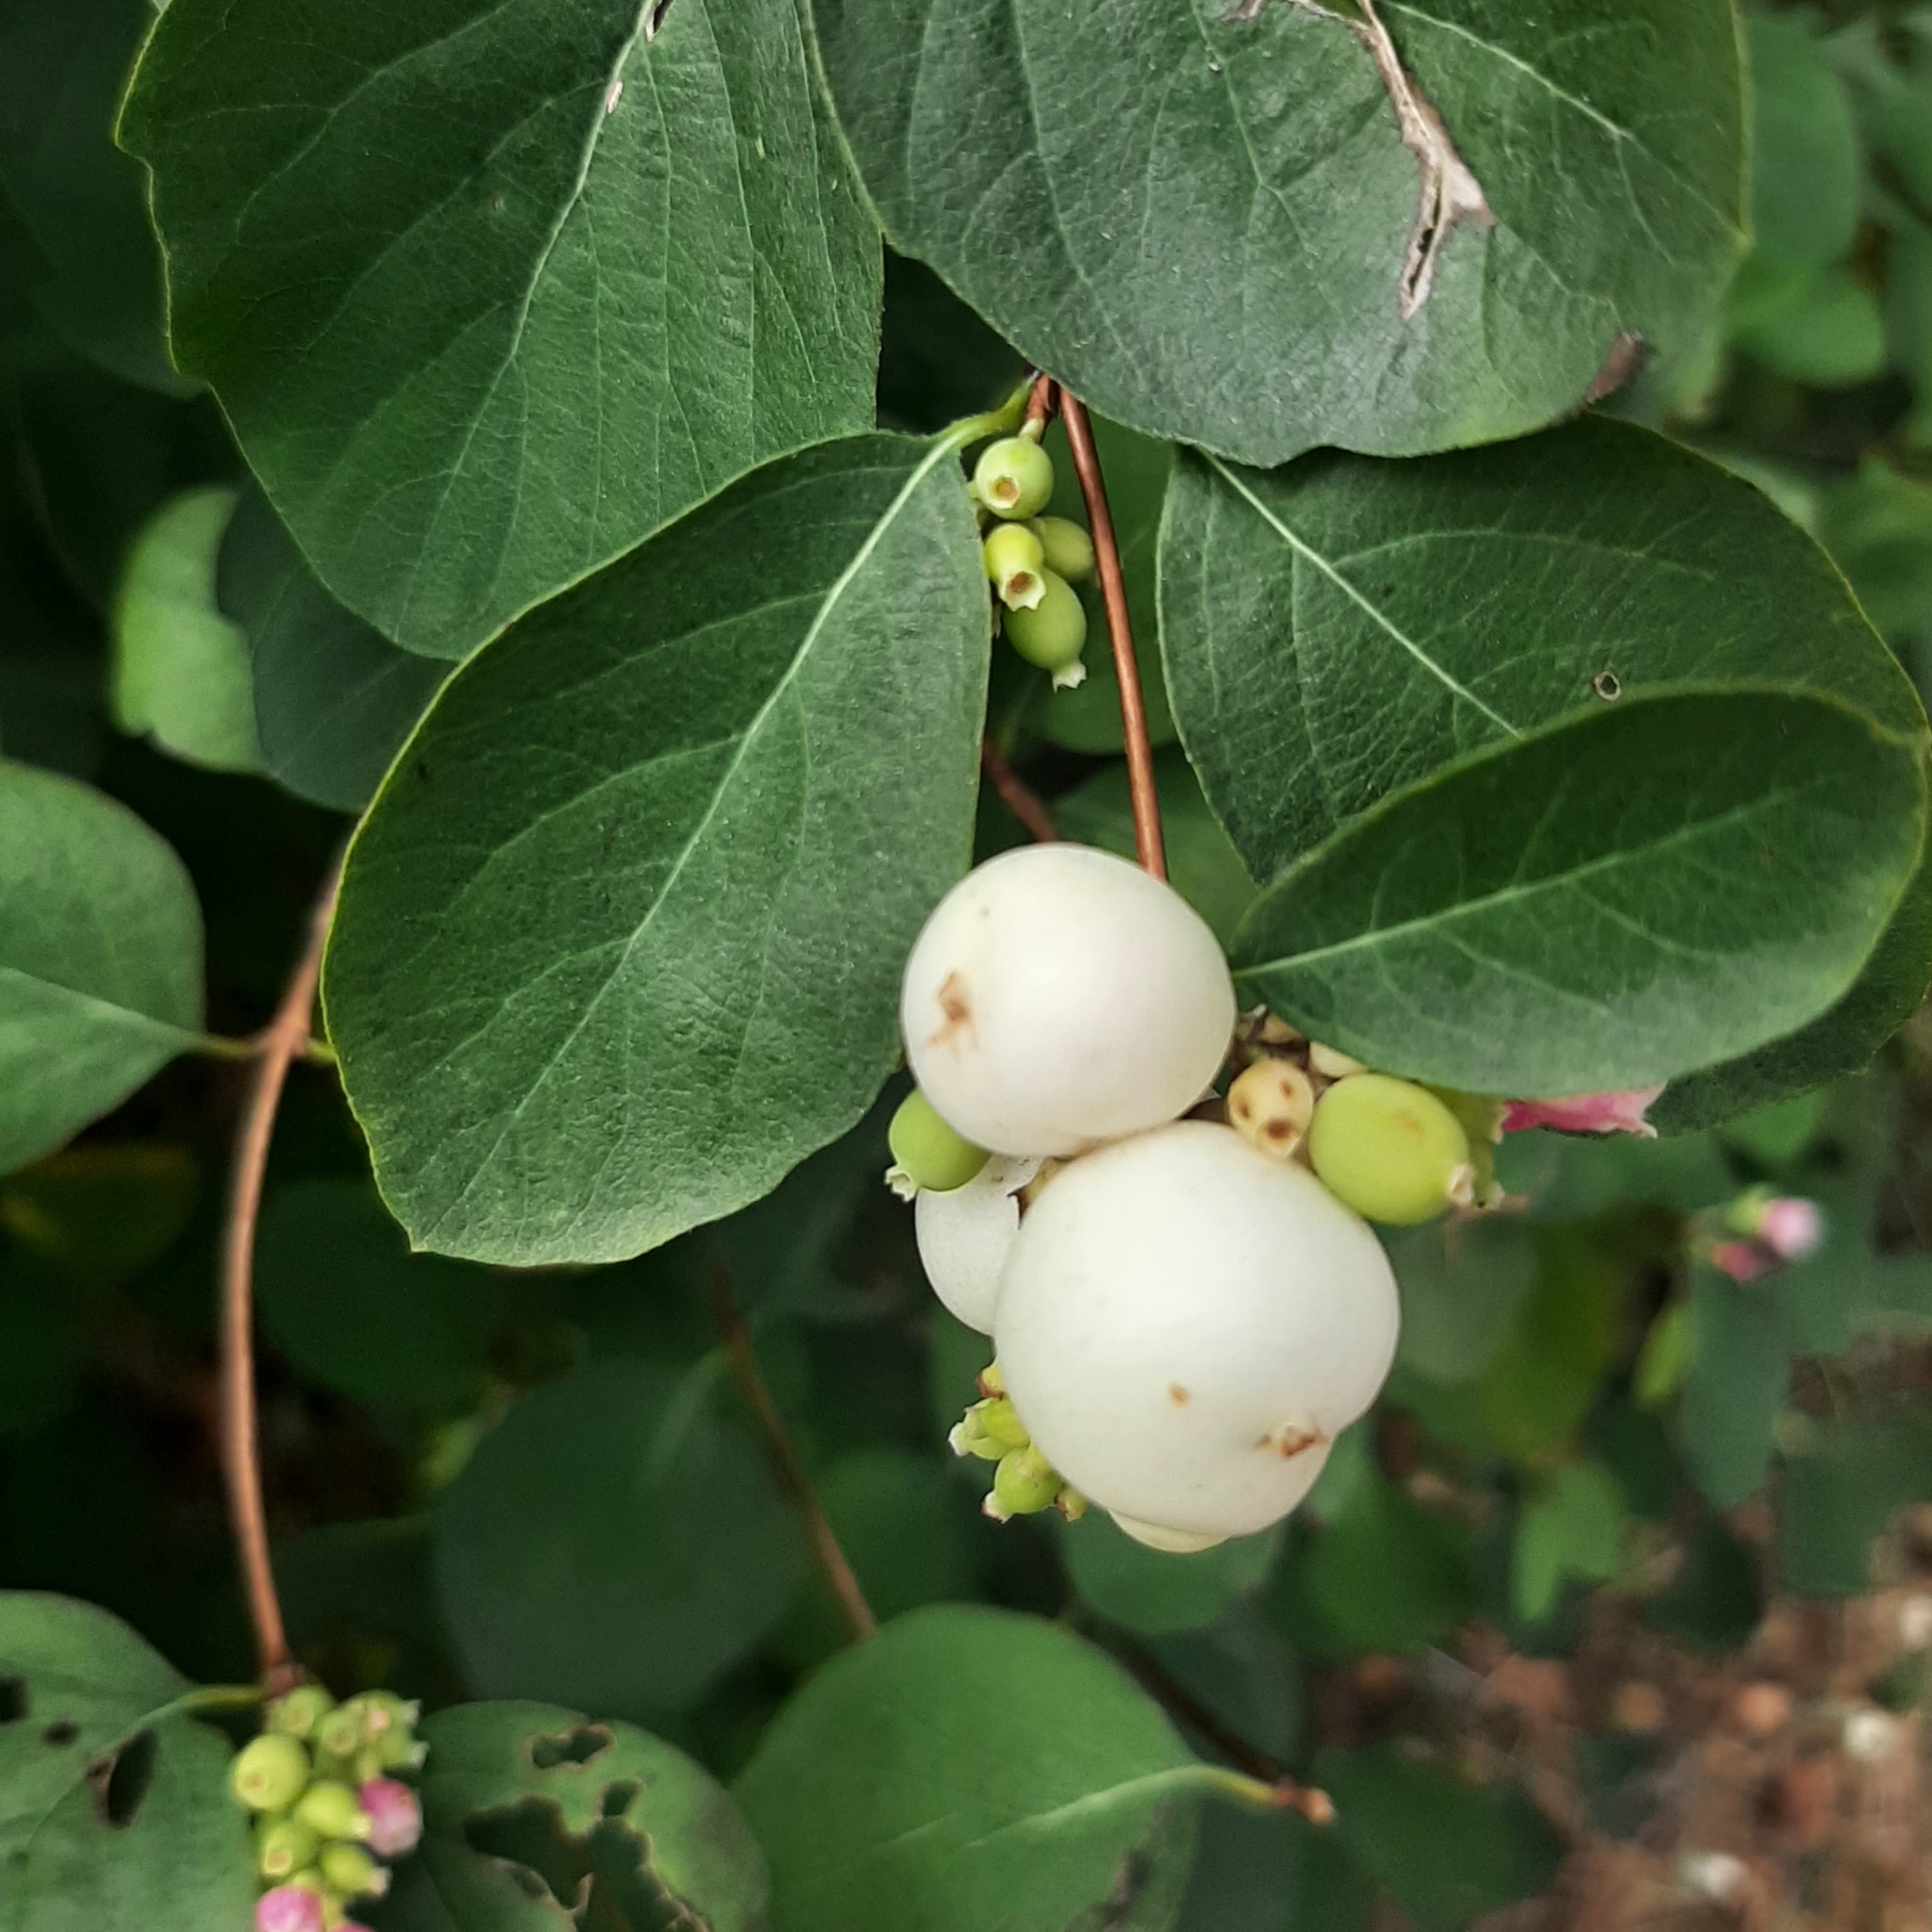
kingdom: Plantae
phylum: Tracheophyta
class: Magnoliopsida
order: Dipsacales
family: Caprifoliaceae
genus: Symphoricarpos
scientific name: Symphoricarpos albus
